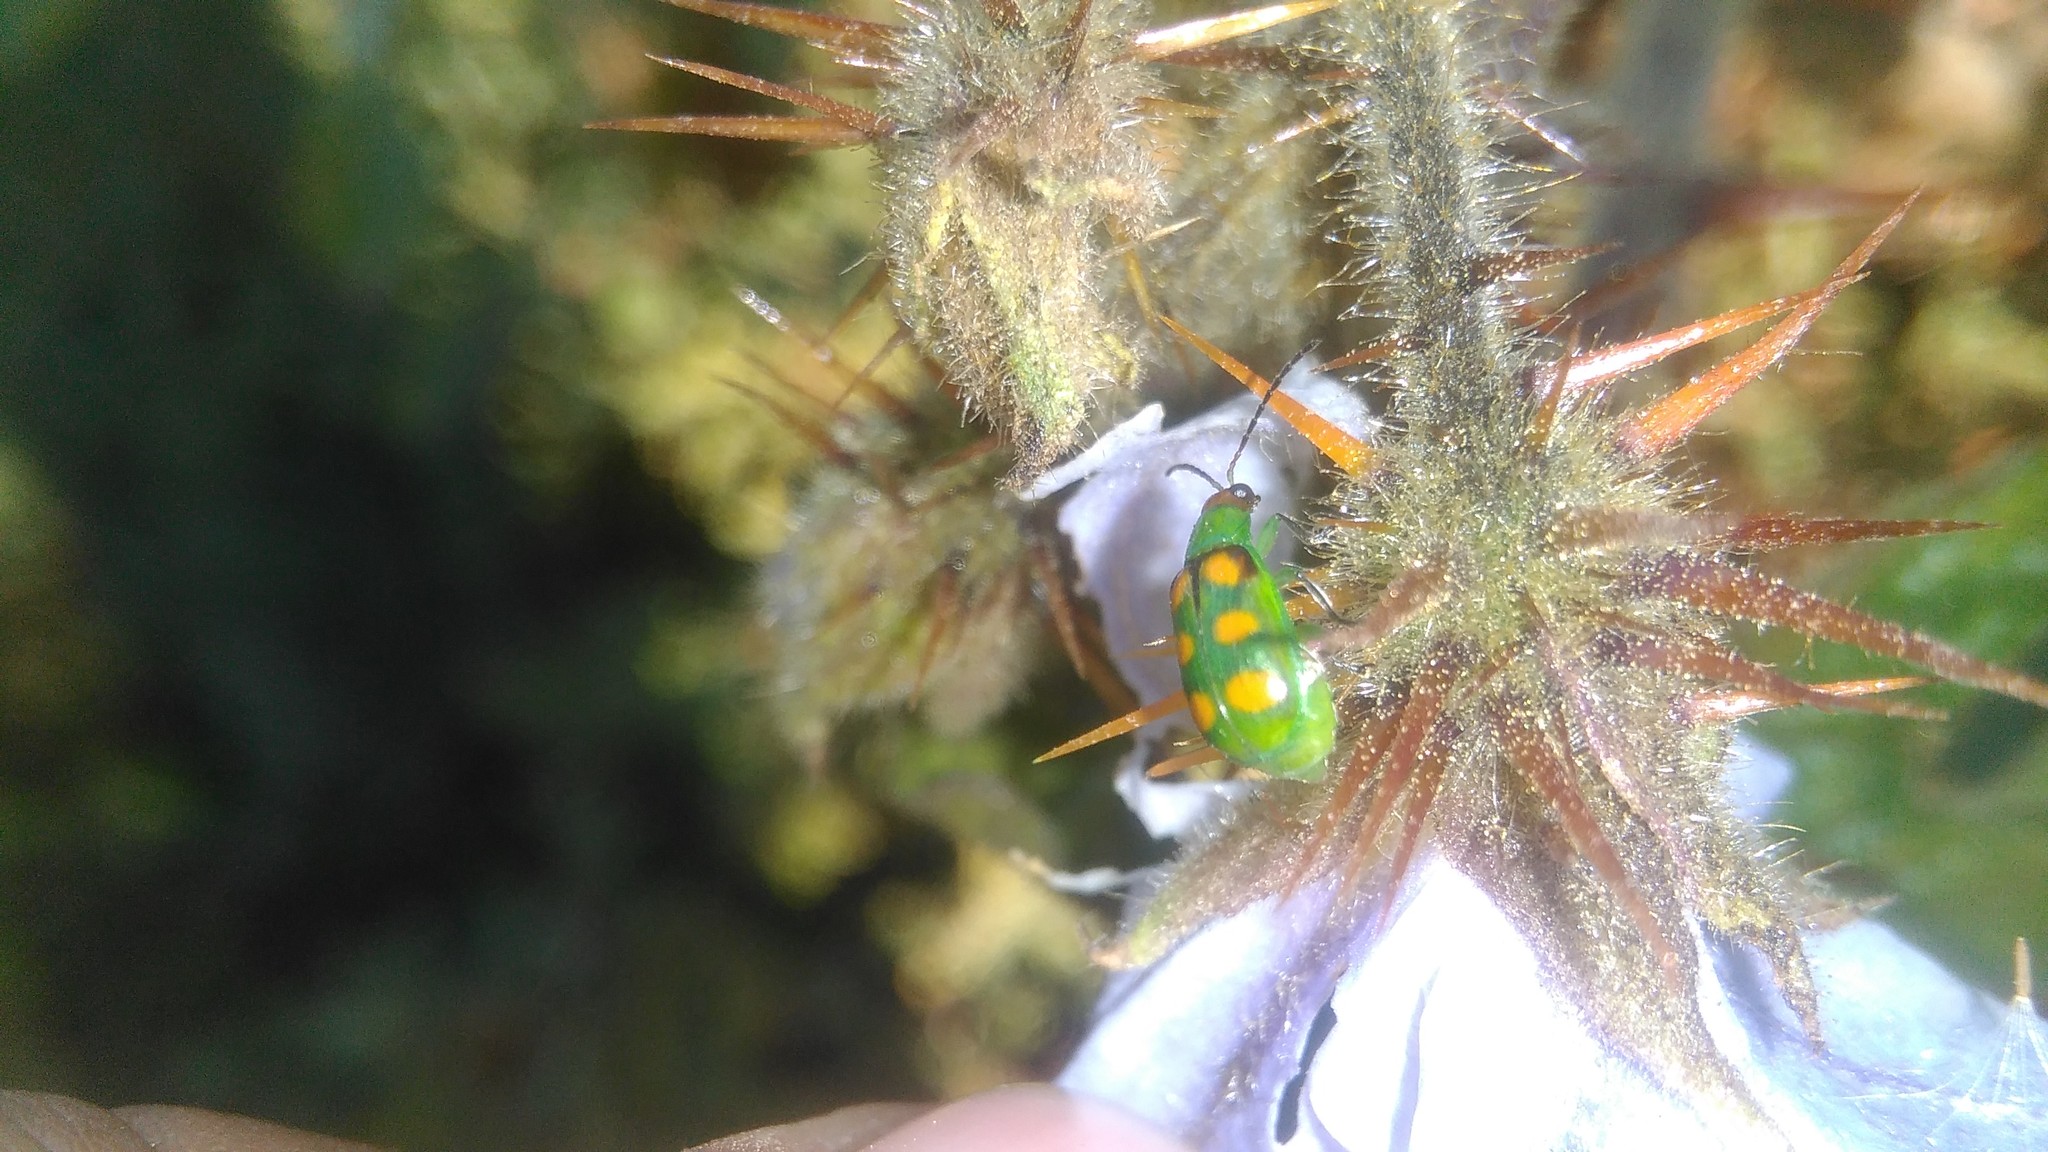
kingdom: Animalia
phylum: Arthropoda
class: Insecta
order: Coleoptera
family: Chrysomelidae
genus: Diabrotica
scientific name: Diabrotica speciosa
